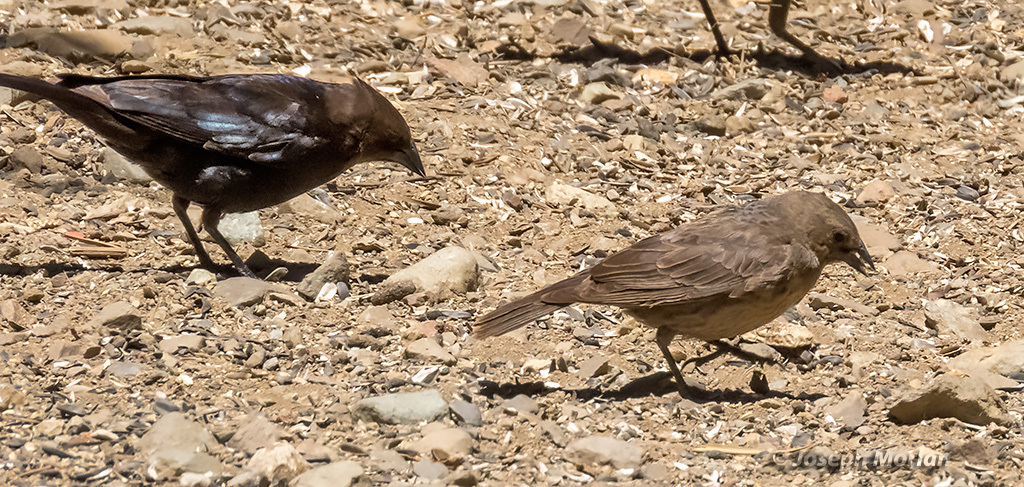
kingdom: Animalia
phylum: Chordata
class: Aves
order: Passeriformes
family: Icteridae
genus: Molothrus
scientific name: Molothrus ater
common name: Brown-headed cowbird
